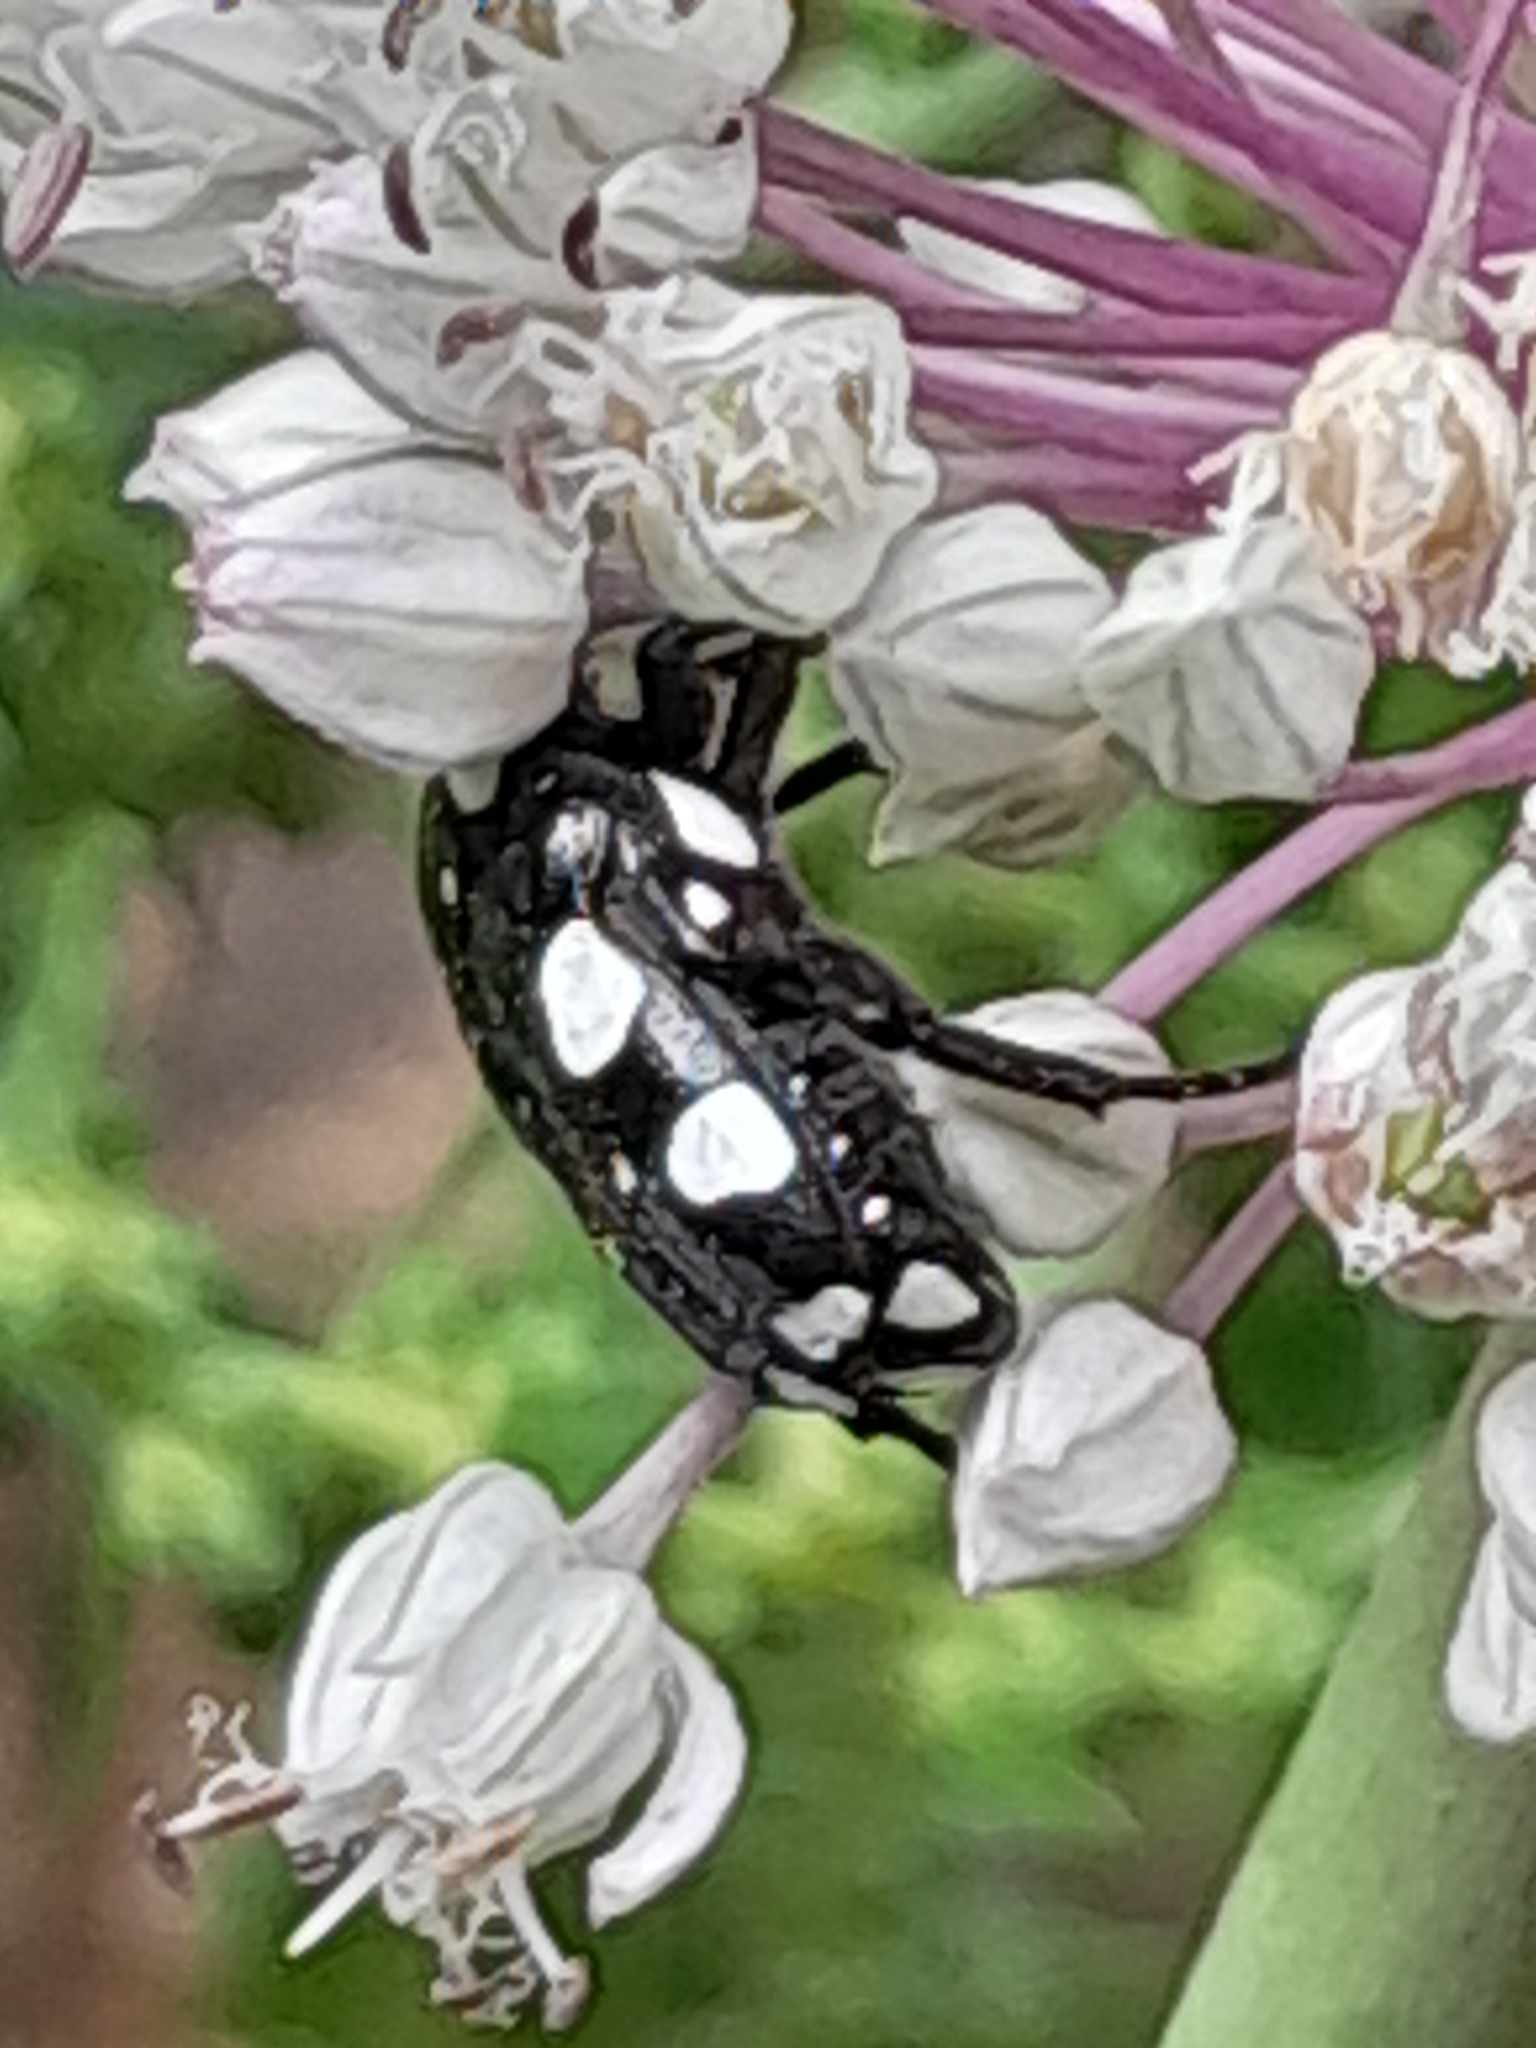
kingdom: Animalia
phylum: Arthropoda
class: Insecta
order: Coleoptera
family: Scarabaeidae
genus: Mausoleopsis
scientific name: Mausoleopsis amabilis
